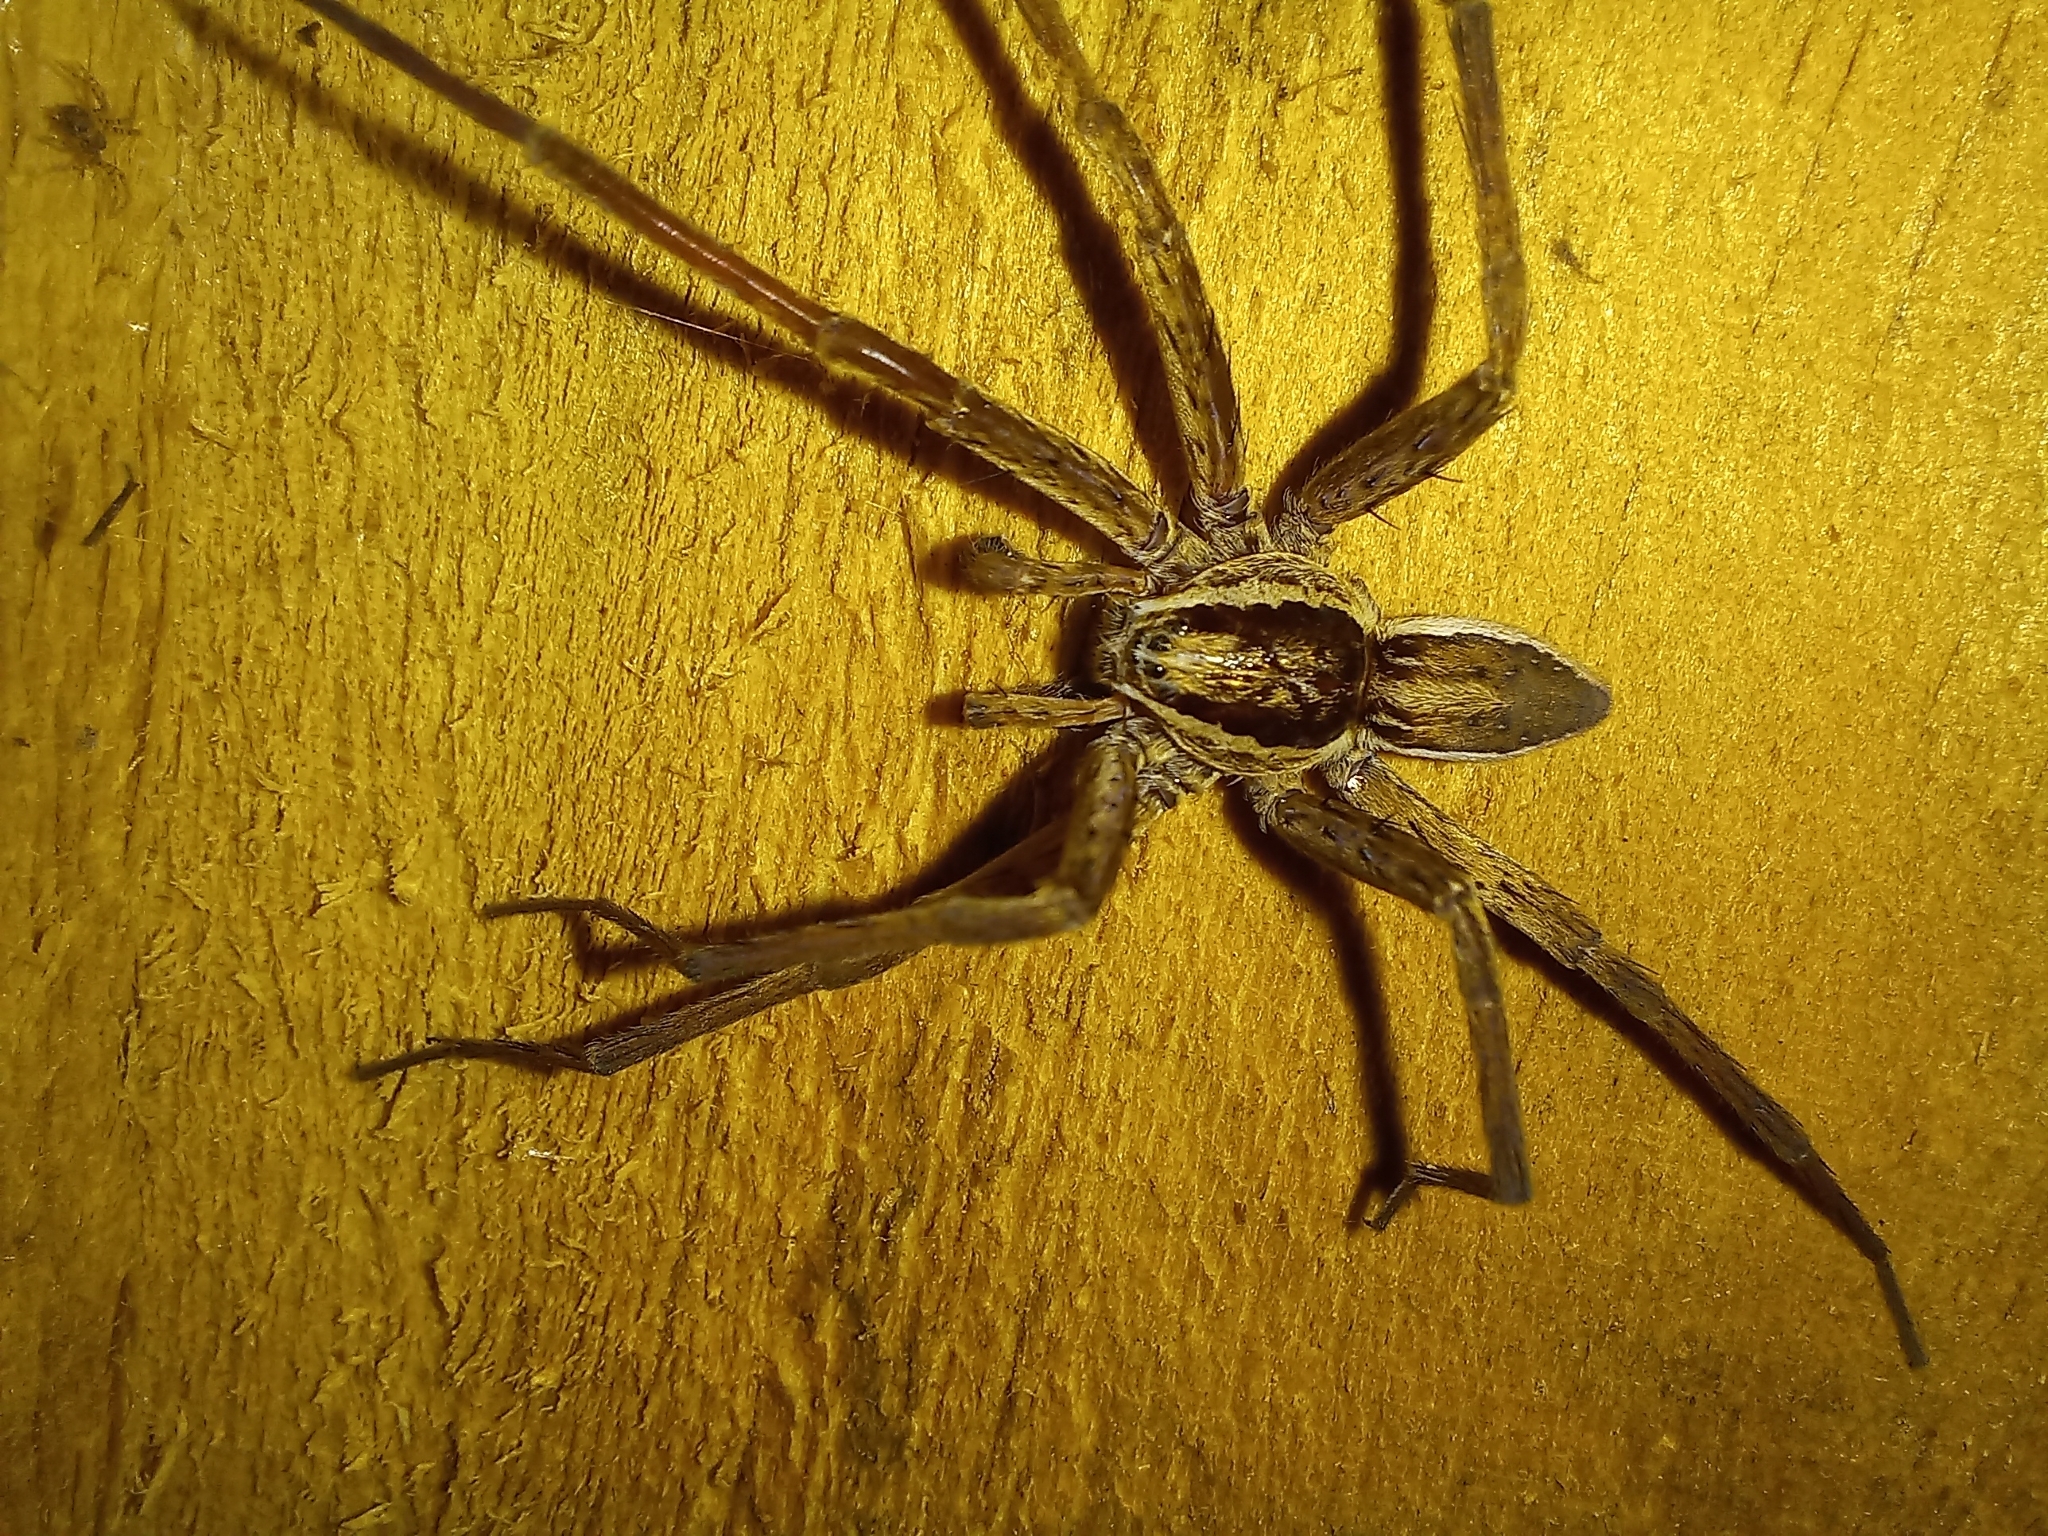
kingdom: Animalia
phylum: Arthropoda
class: Arachnida
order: Araneae
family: Pisauridae
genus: Dolomedes
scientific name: Dolomedes minor
